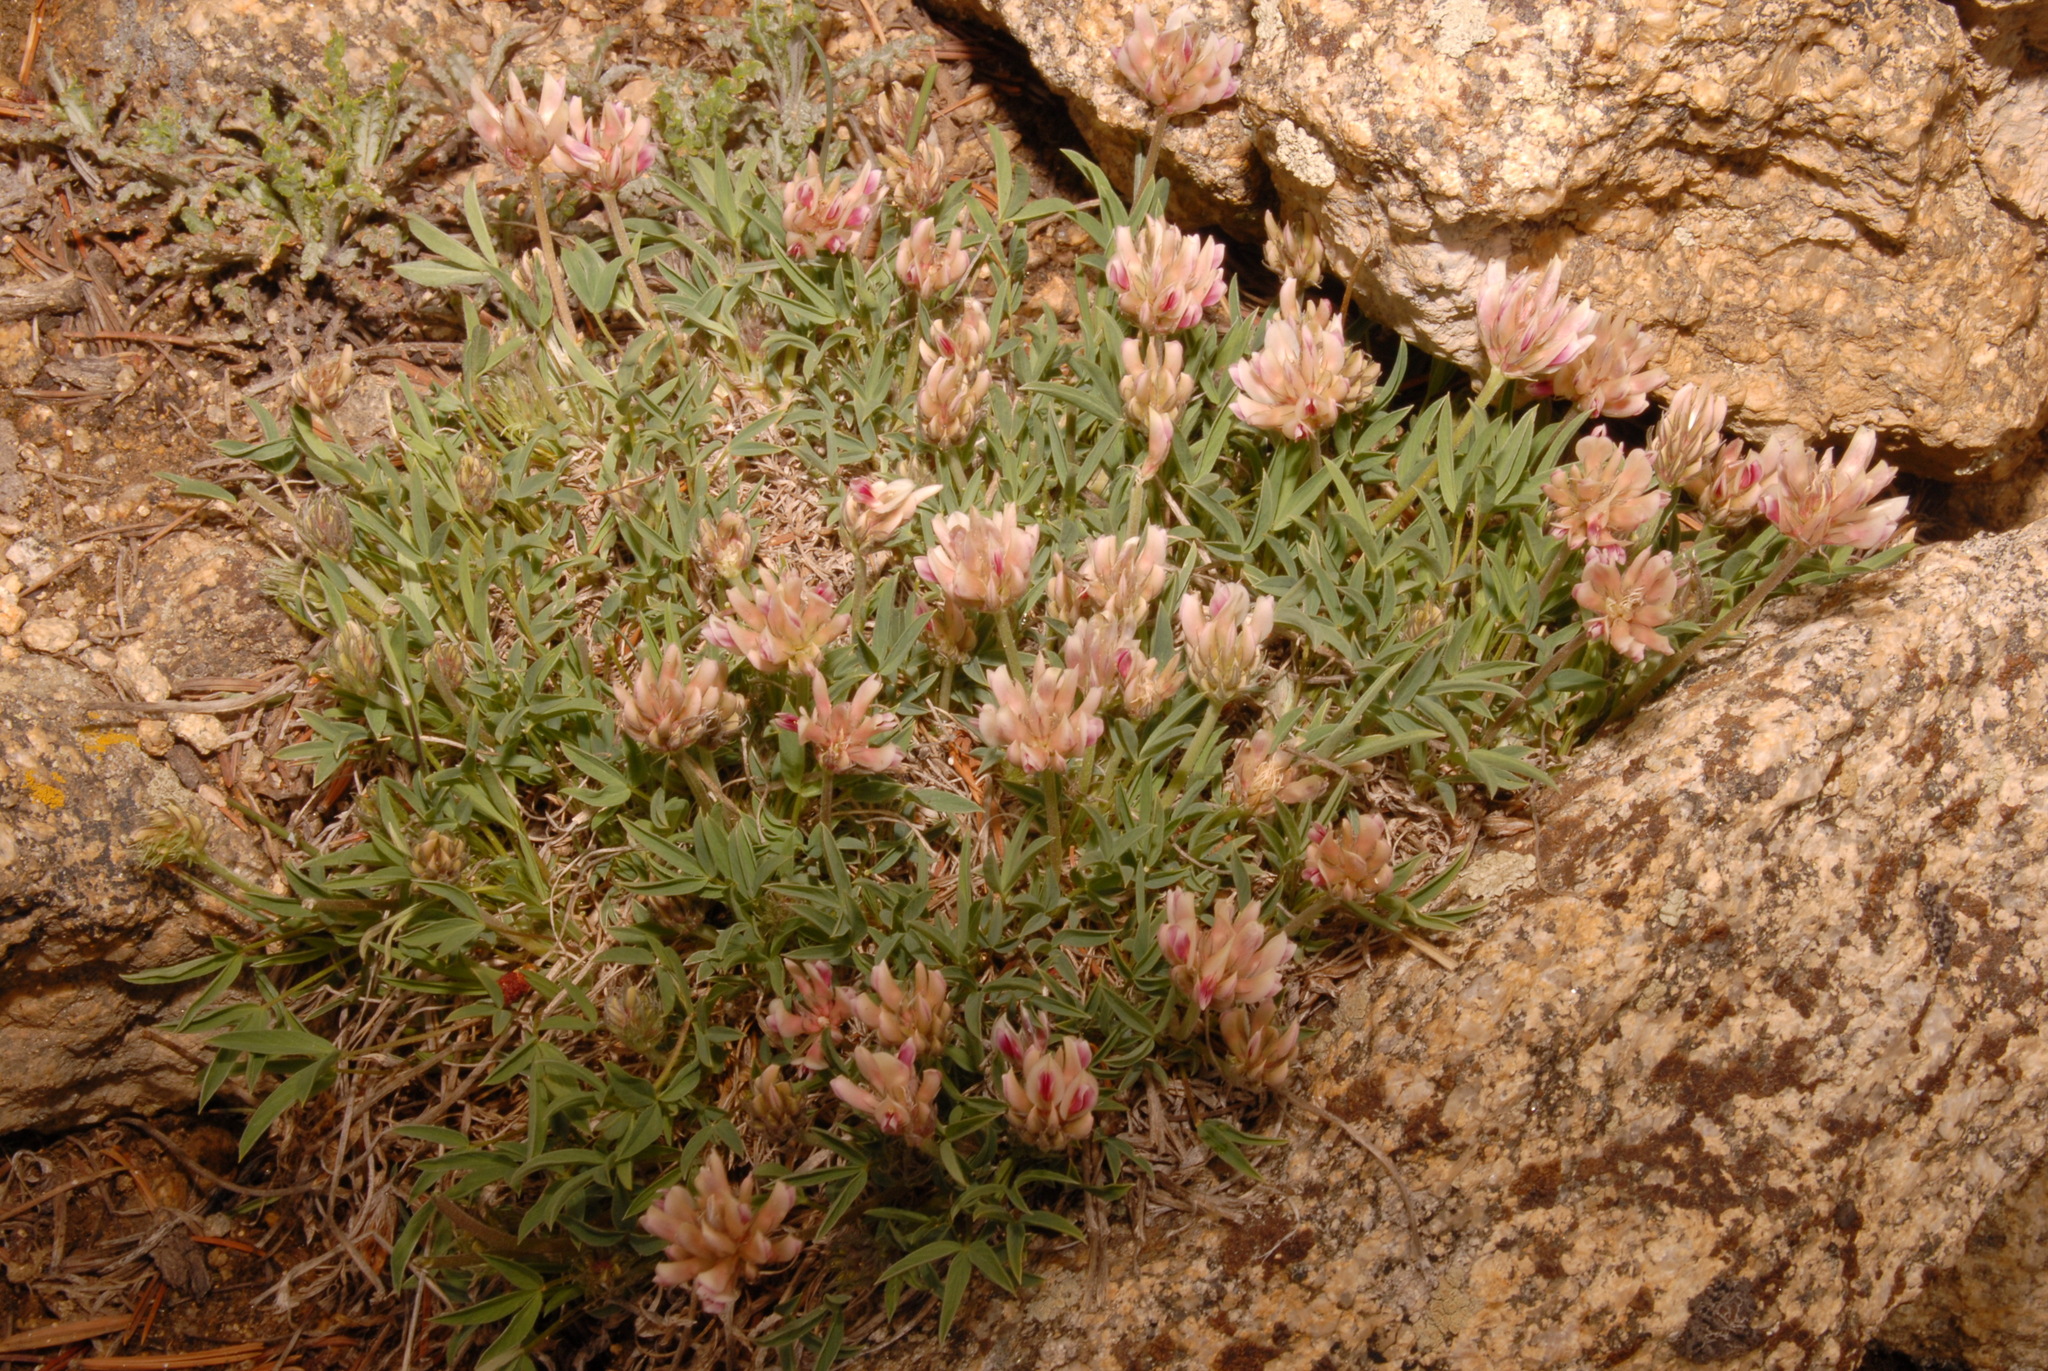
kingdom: Plantae
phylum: Tracheophyta
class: Magnoliopsida
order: Fabales
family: Fabaceae
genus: Trifolium
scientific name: Trifolium dasyphyllum
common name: Whip-root clover
